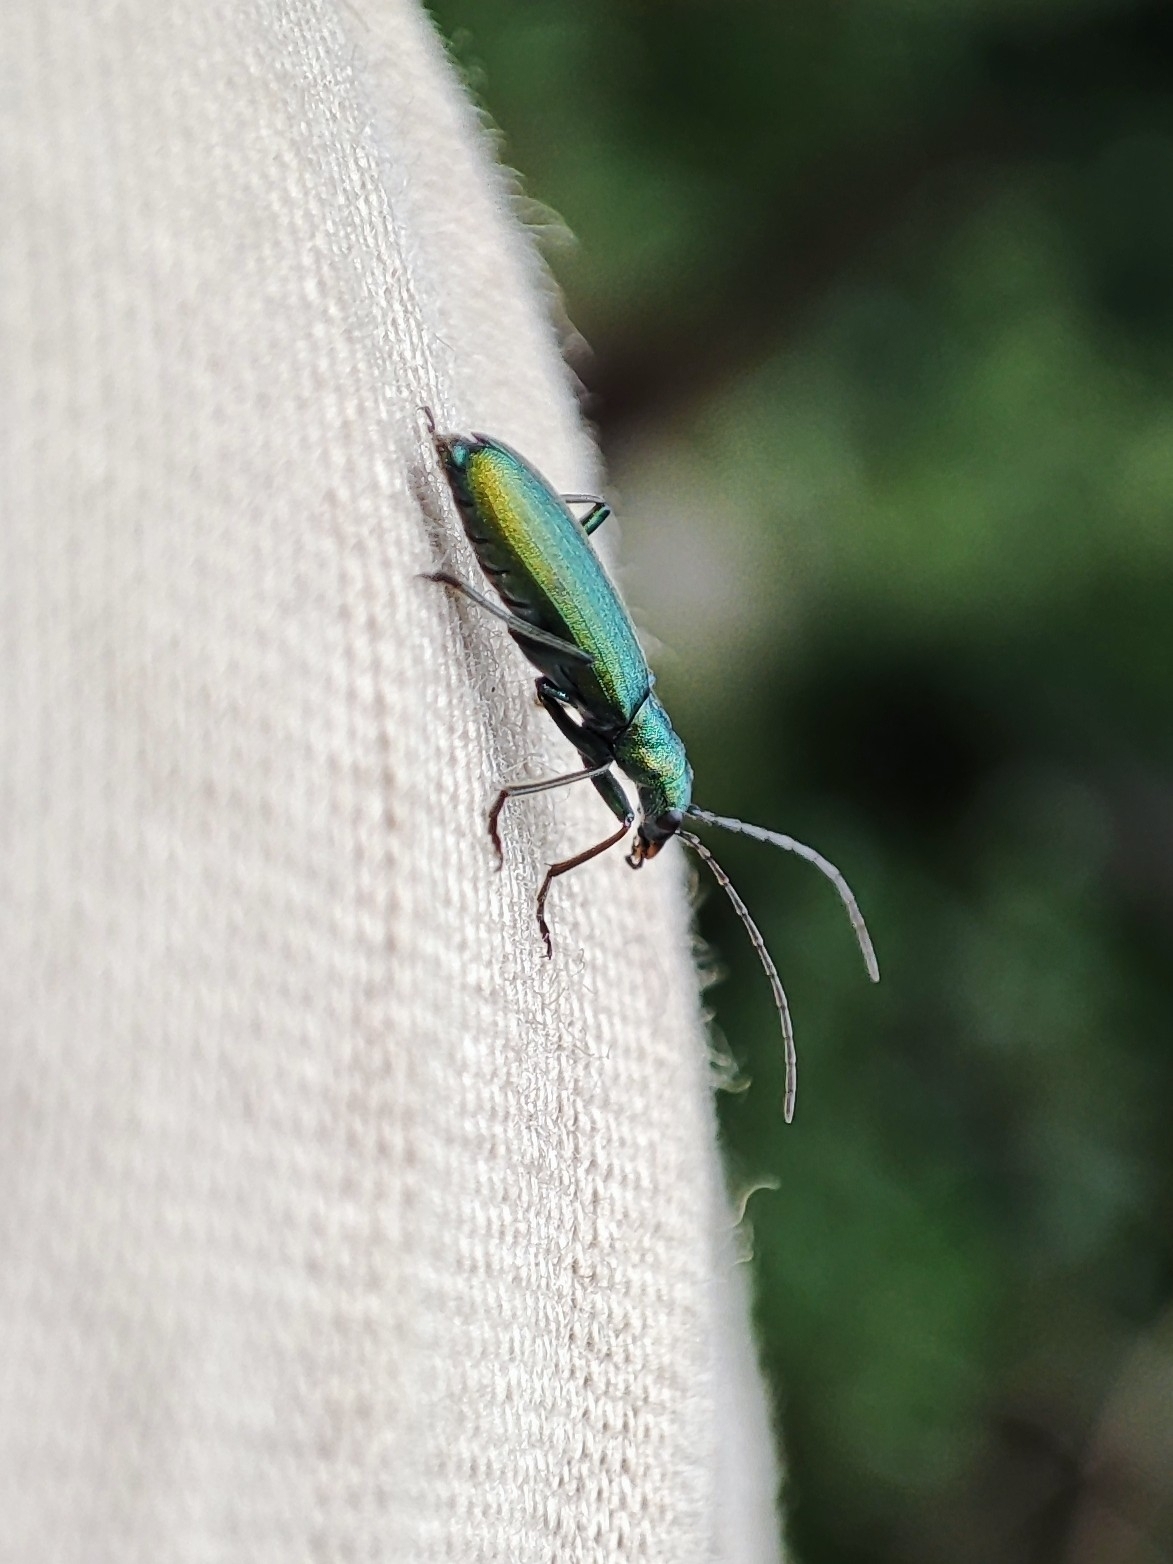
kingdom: Animalia
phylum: Arthropoda
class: Insecta
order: Coleoptera
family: Oedemeridae
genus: Chrysanthia
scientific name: Chrysanthia viridissima
